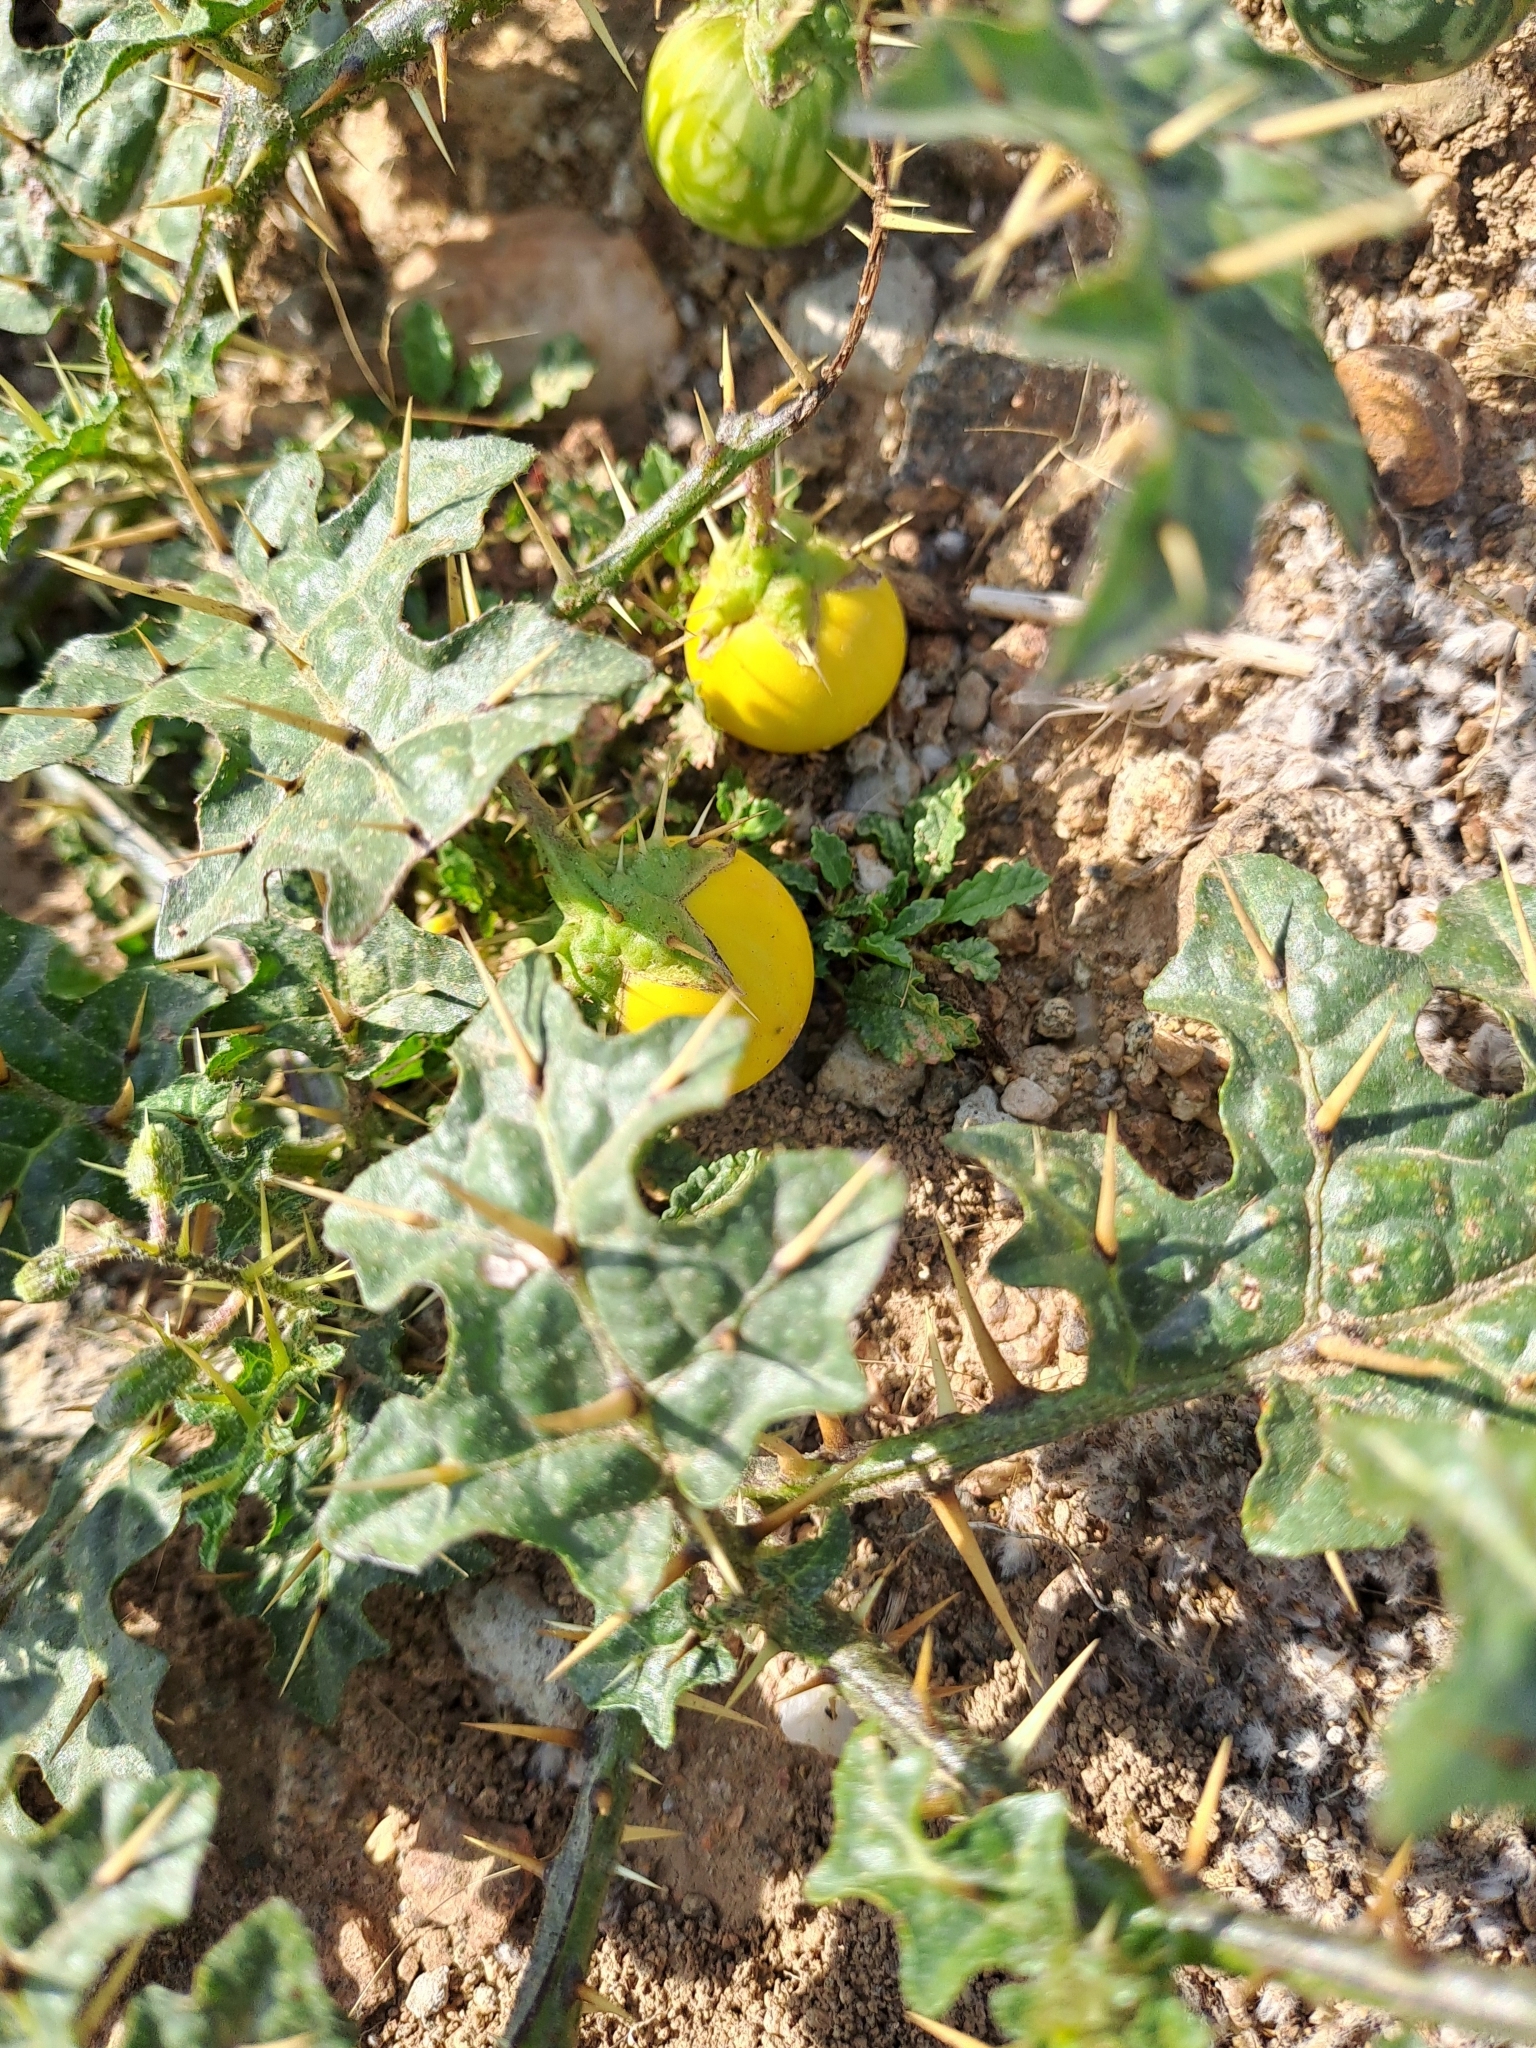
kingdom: Plantae
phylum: Tracheophyta
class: Magnoliopsida
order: Solanales
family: Solanaceae
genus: Solanum
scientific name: Solanum virginianum
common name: Surattense nightshade
